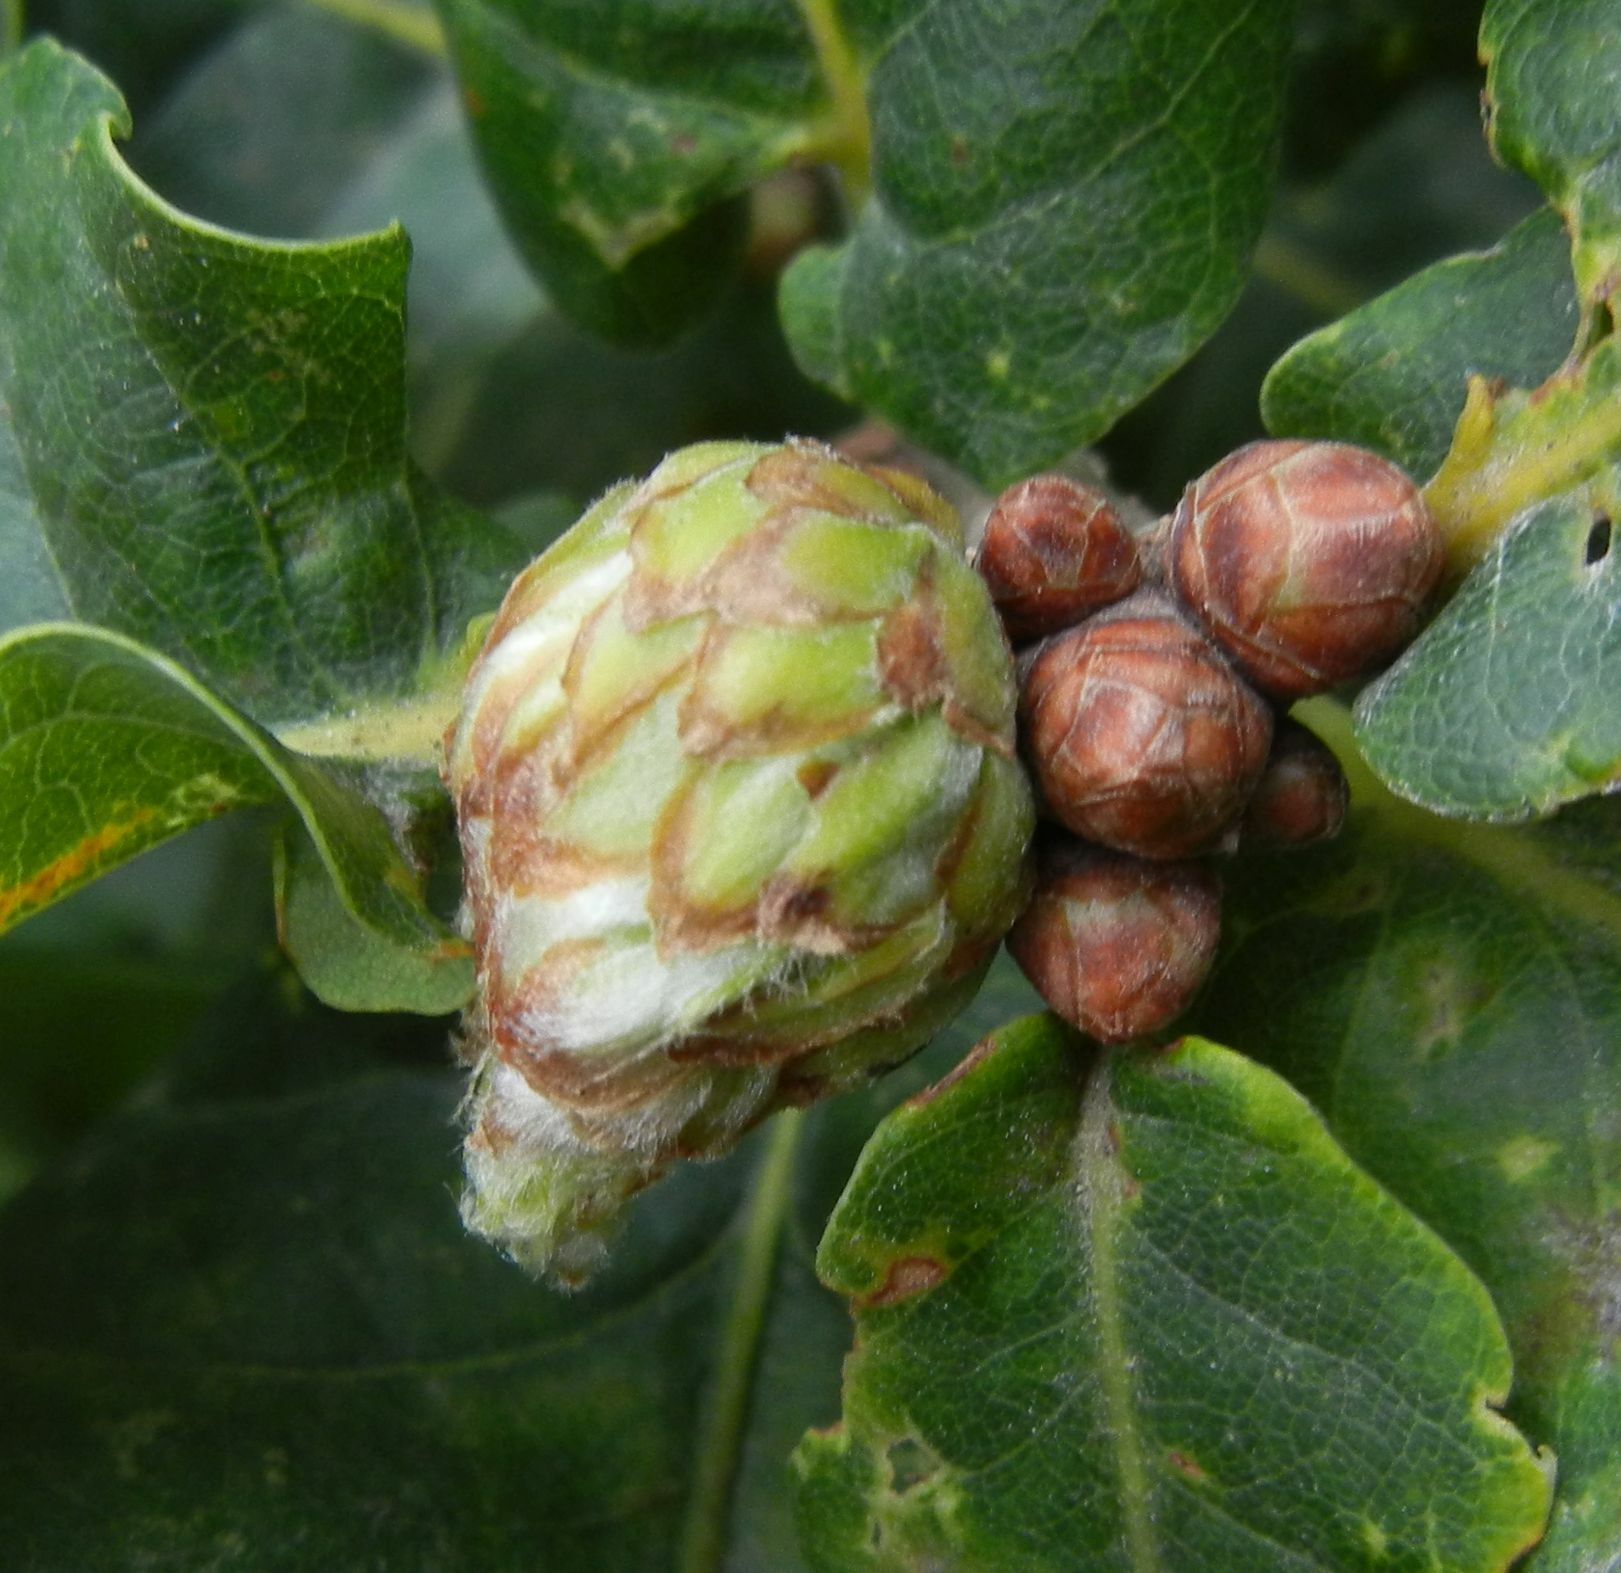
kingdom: Animalia
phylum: Arthropoda
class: Insecta
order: Hymenoptera
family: Cynipidae
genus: Andricus
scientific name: Andricus foecundatrix
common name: Artichoke gall
